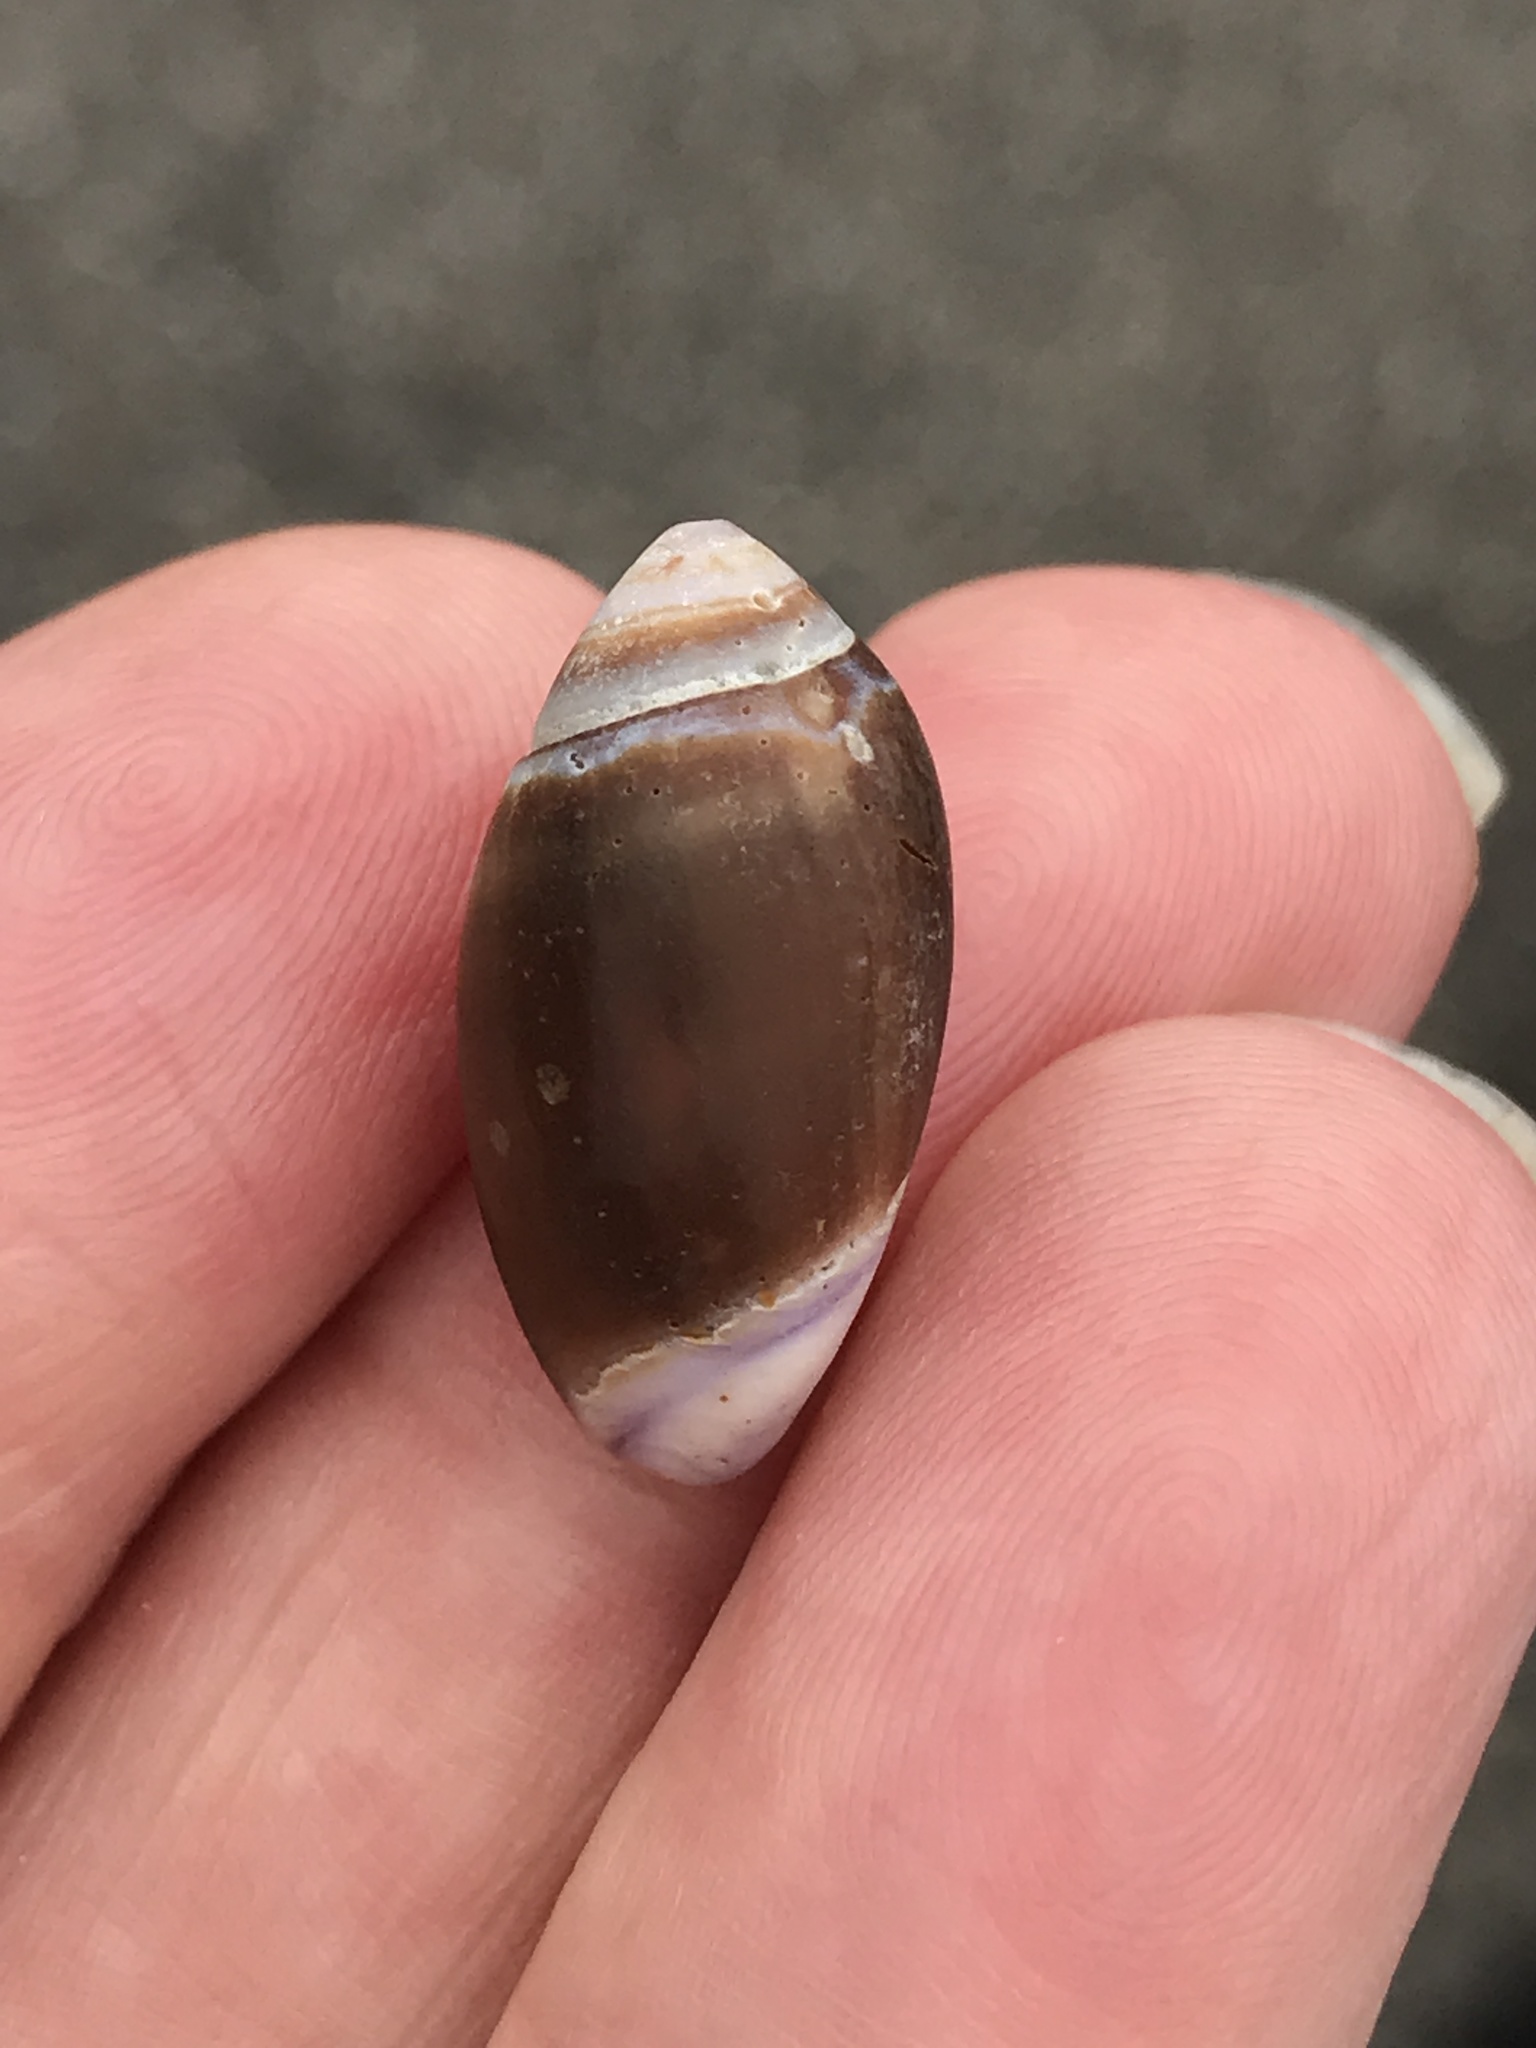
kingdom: Animalia
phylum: Mollusca
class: Gastropoda
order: Neogastropoda
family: Olividae
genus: Callianax
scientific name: Callianax biplicata
